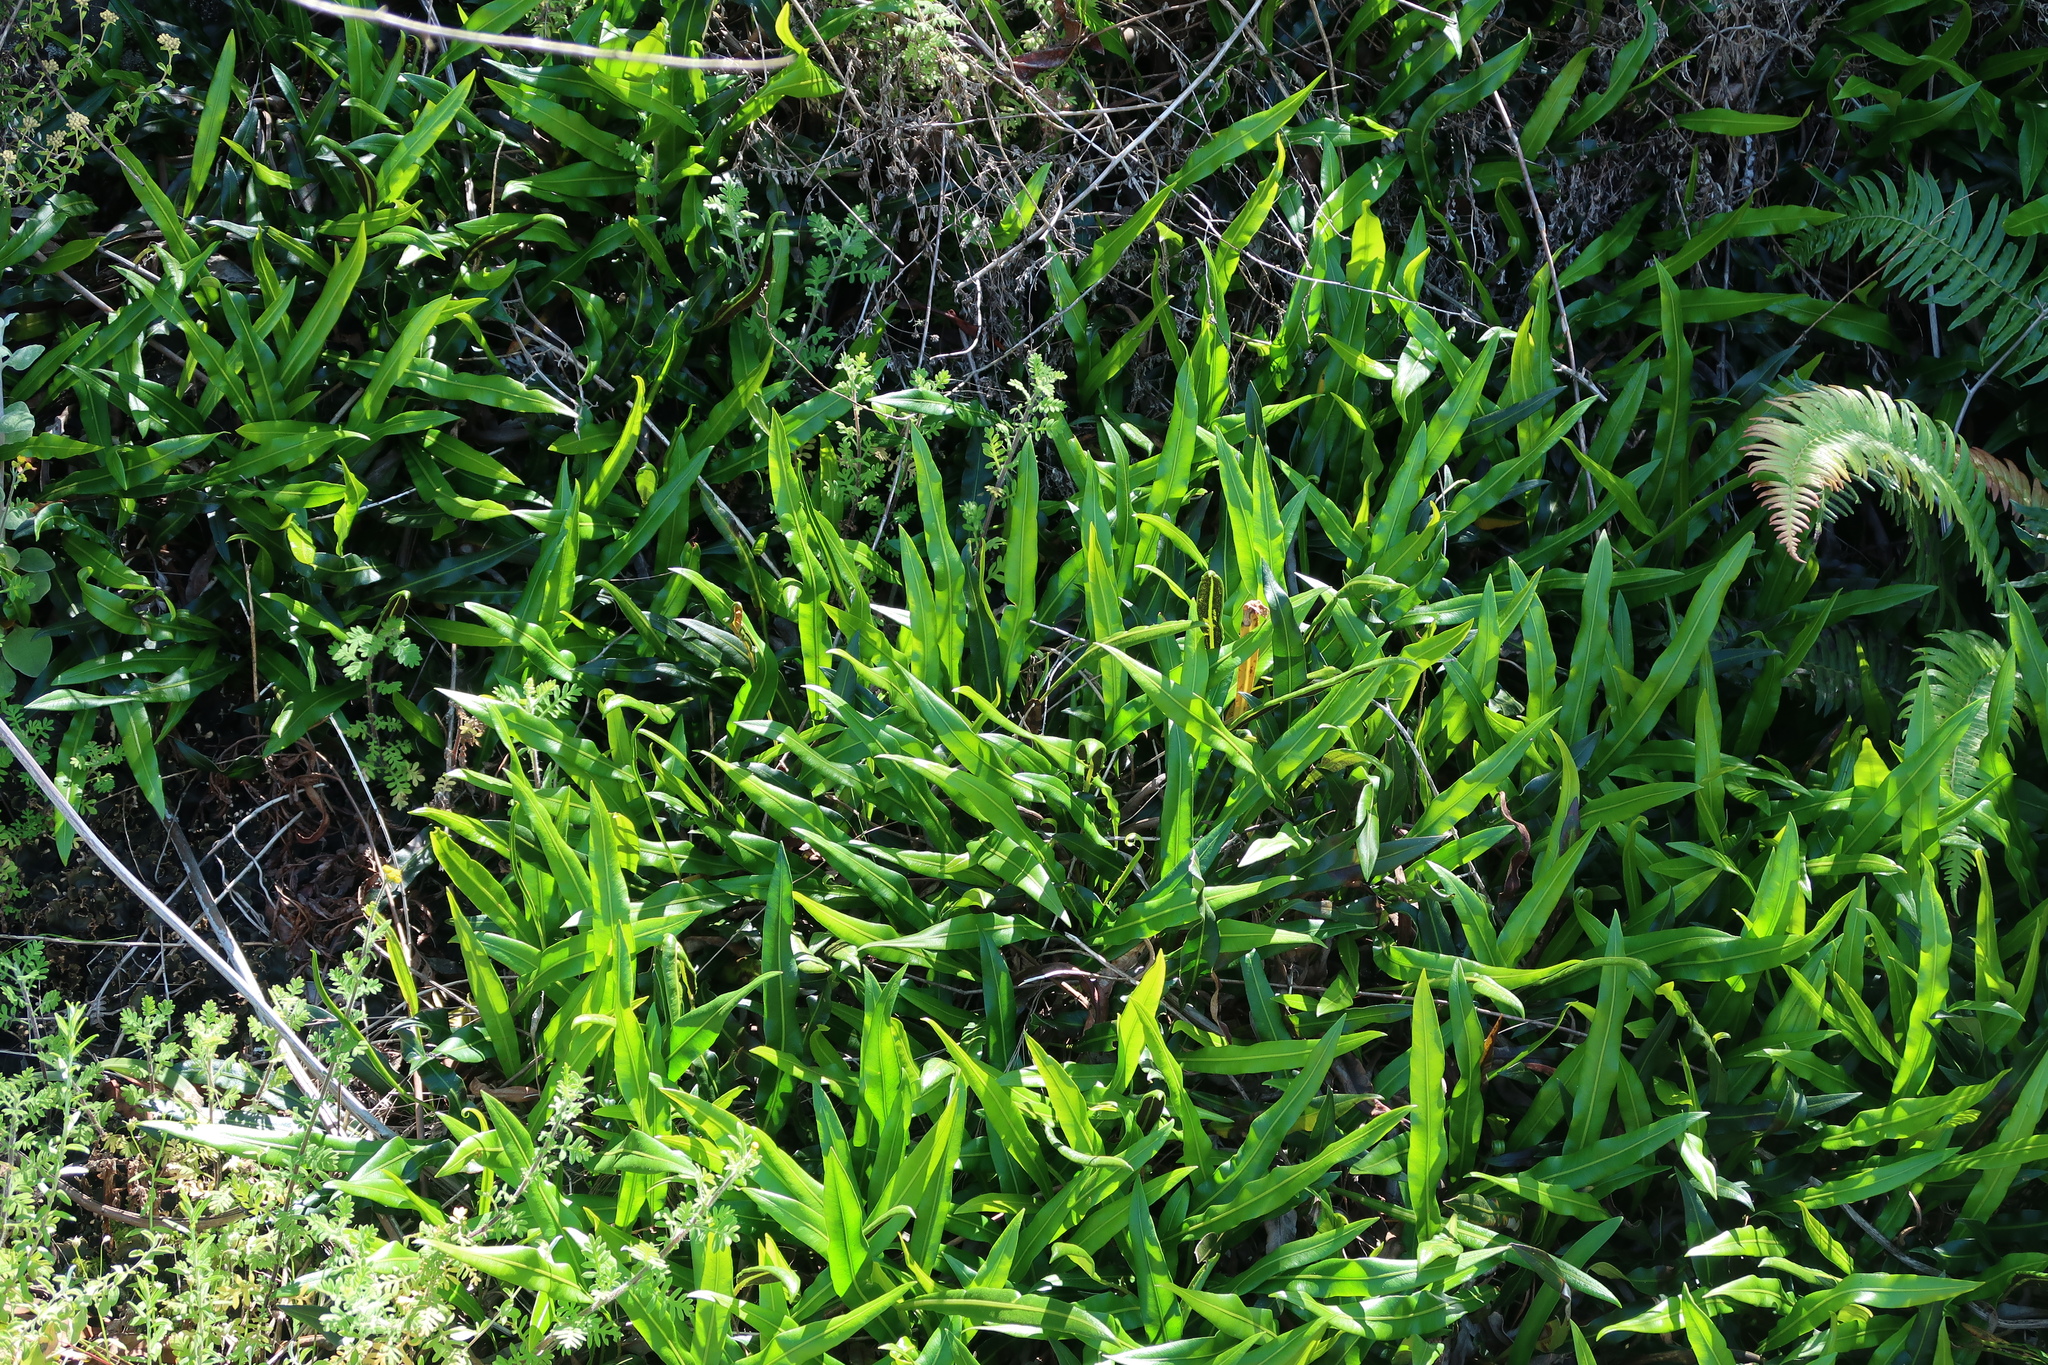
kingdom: Plantae
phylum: Tracheophyta
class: Polypodiopsida
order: Polypodiales
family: Dryopteridaceae
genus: Elaphoglossum
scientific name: Elaphoglossum acrostichoides
